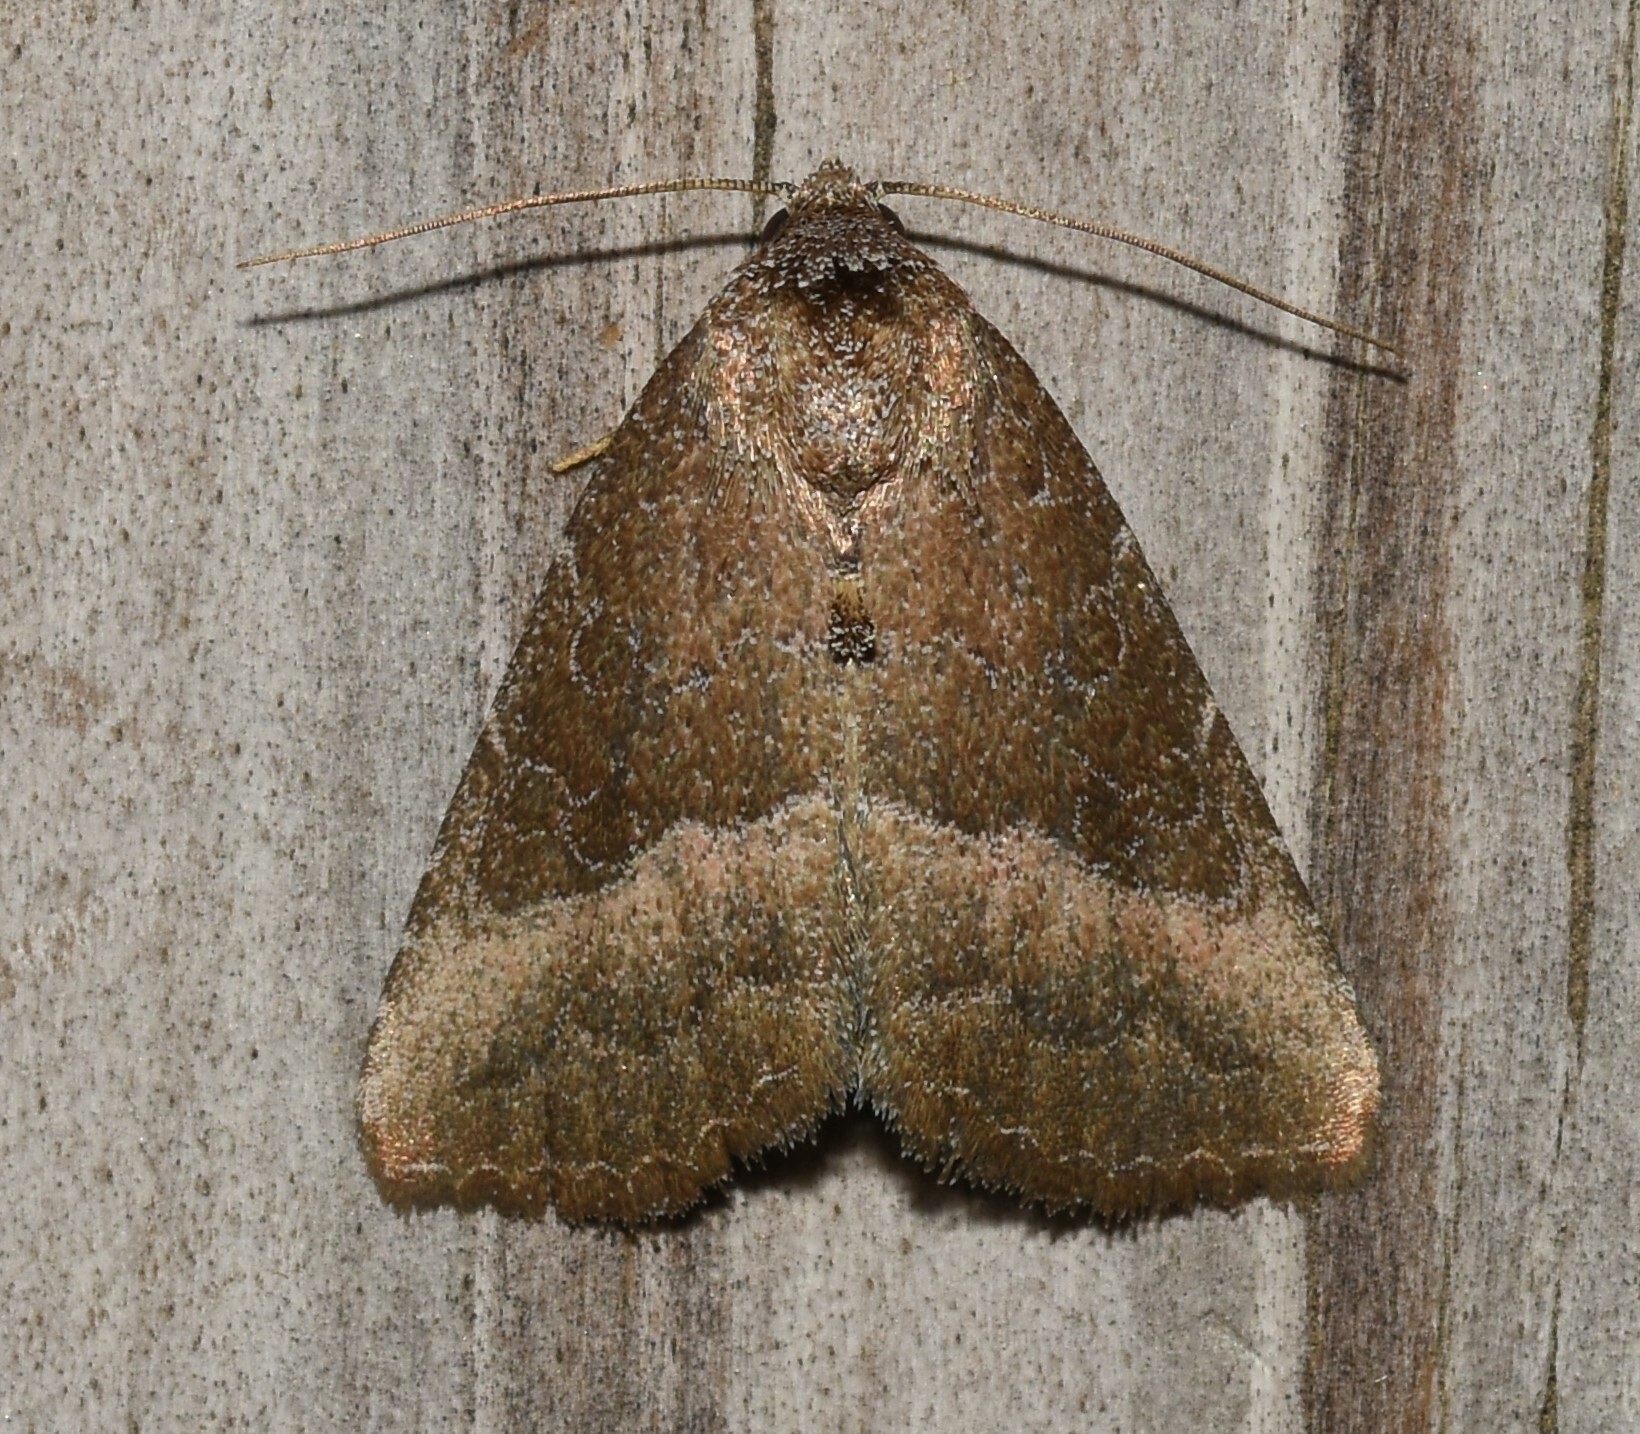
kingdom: Animalia
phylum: Arthropoda
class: Insecta
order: Lepidoptera
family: Noctuidae
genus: Ogdoconta
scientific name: Ogdoconta cinereola
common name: Common pinkband
